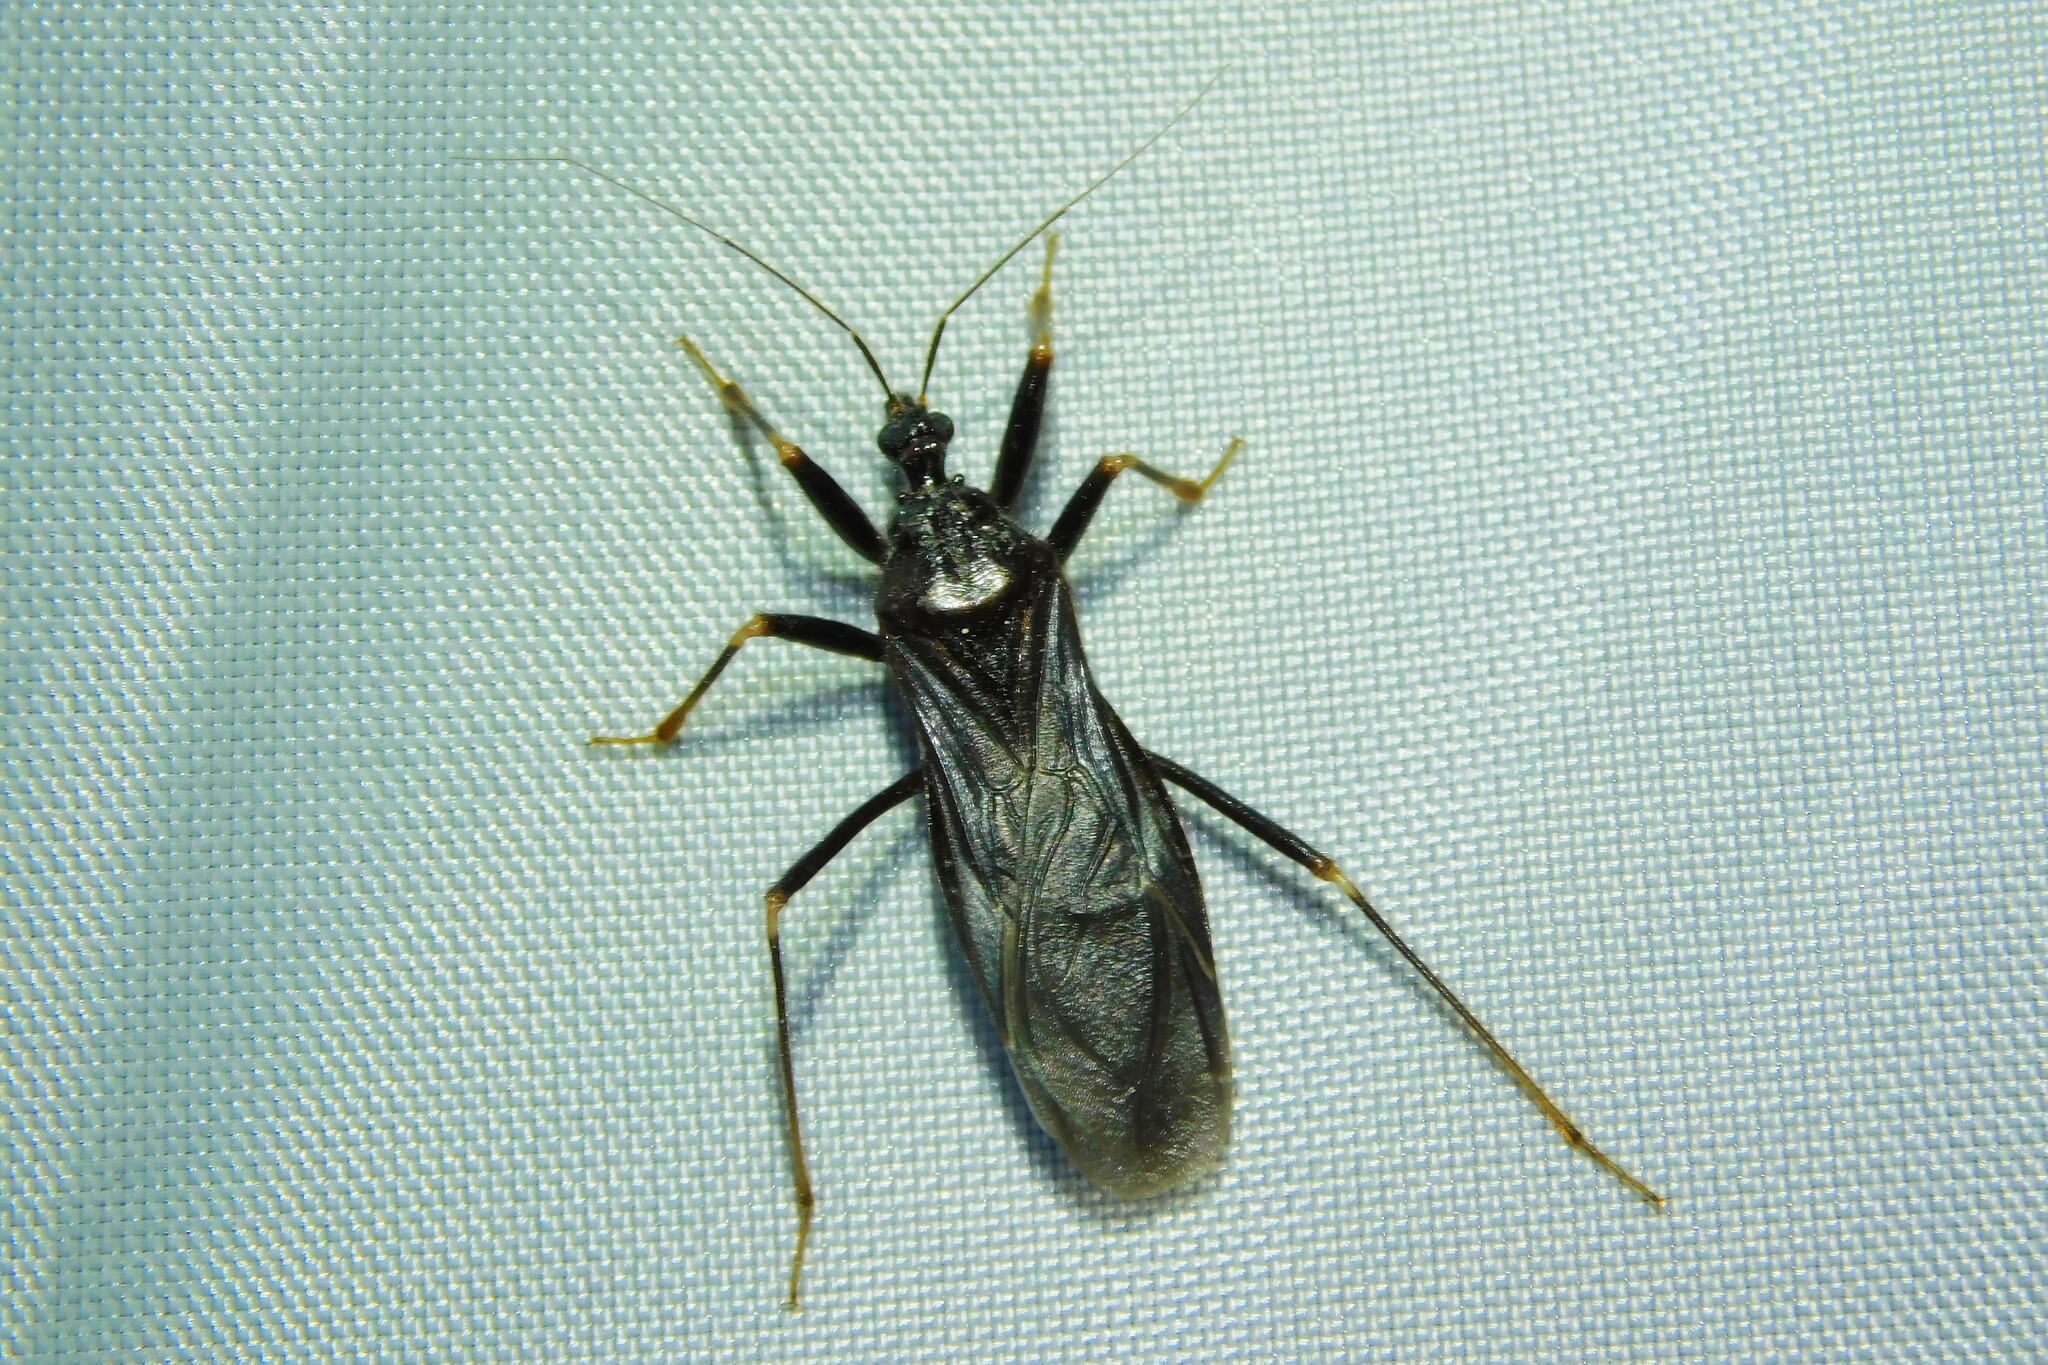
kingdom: Animalia
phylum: Arthropoda
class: Insecta
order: Hemiptera
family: Reduviidae
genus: Reduvius
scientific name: Reduvius personatus
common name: Masked hunter
